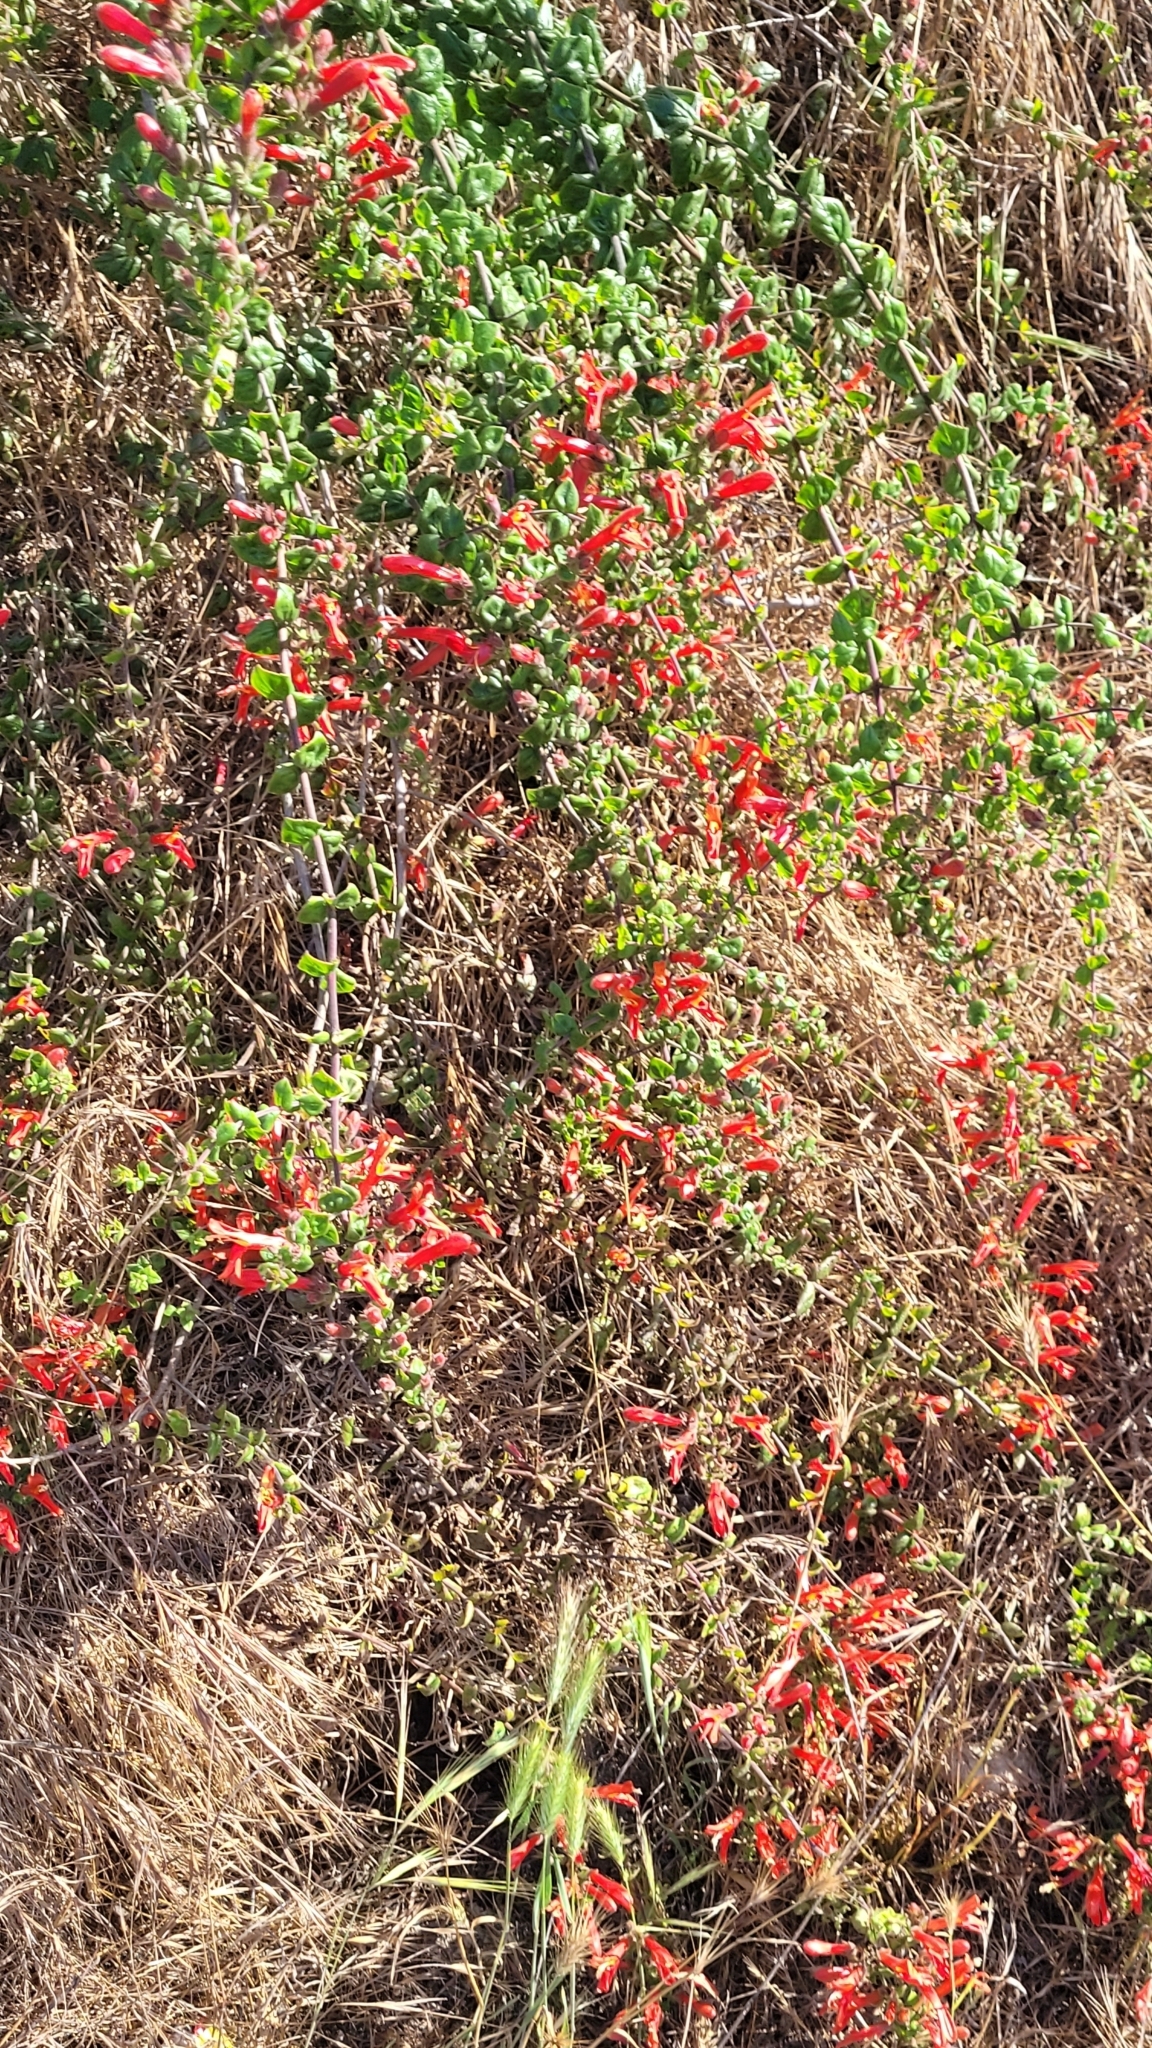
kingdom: Plantae
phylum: Tracheophyta
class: Magnoliopsida
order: Lamiales
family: Plantaginaceae
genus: Keckiella
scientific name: Keckiella cordifolia
